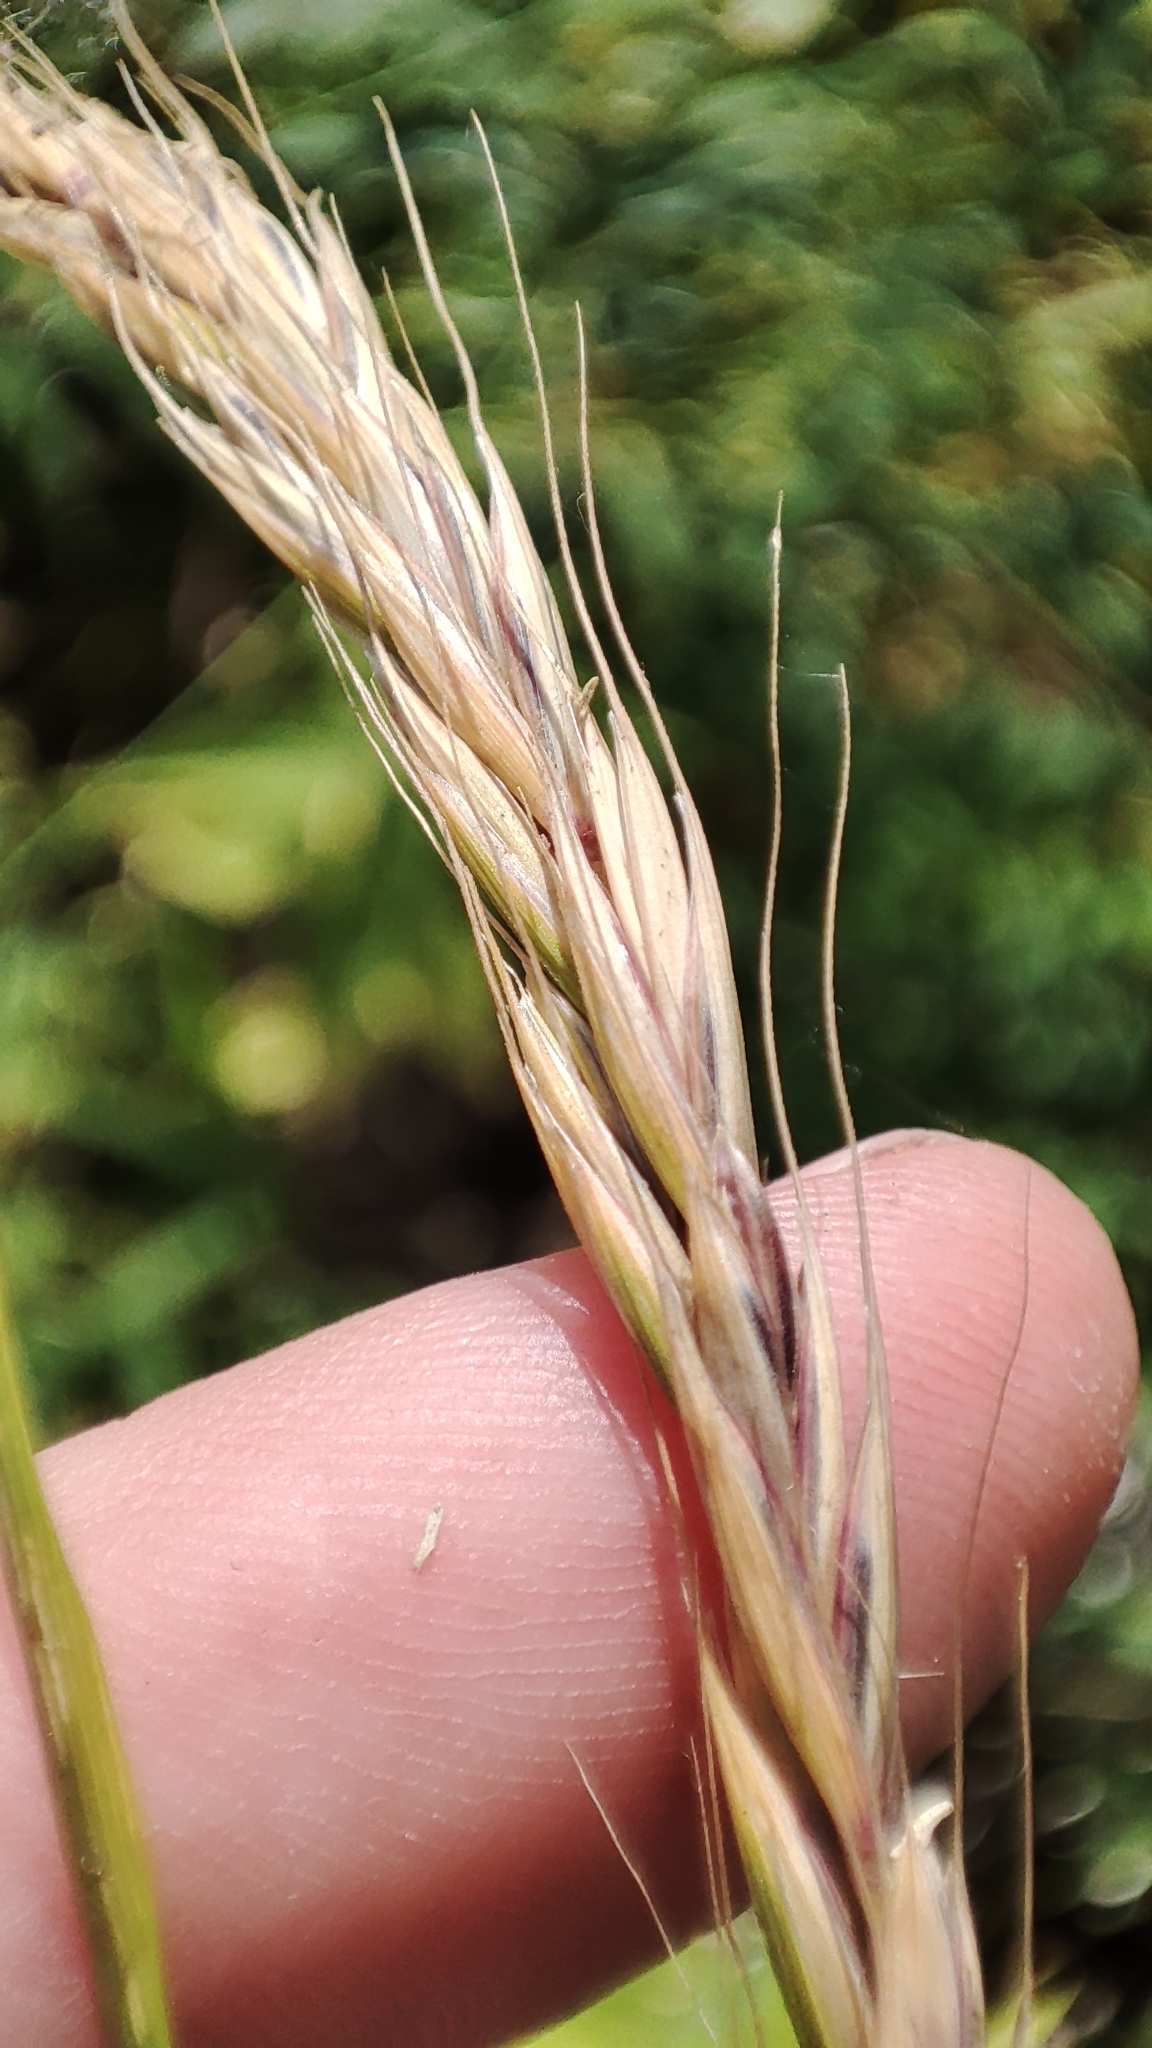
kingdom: Plantae
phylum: Tracheophyta
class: Liliopsida
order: Poales
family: Poaceae
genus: Elymus
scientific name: Elymus caninus
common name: Bearded couch
